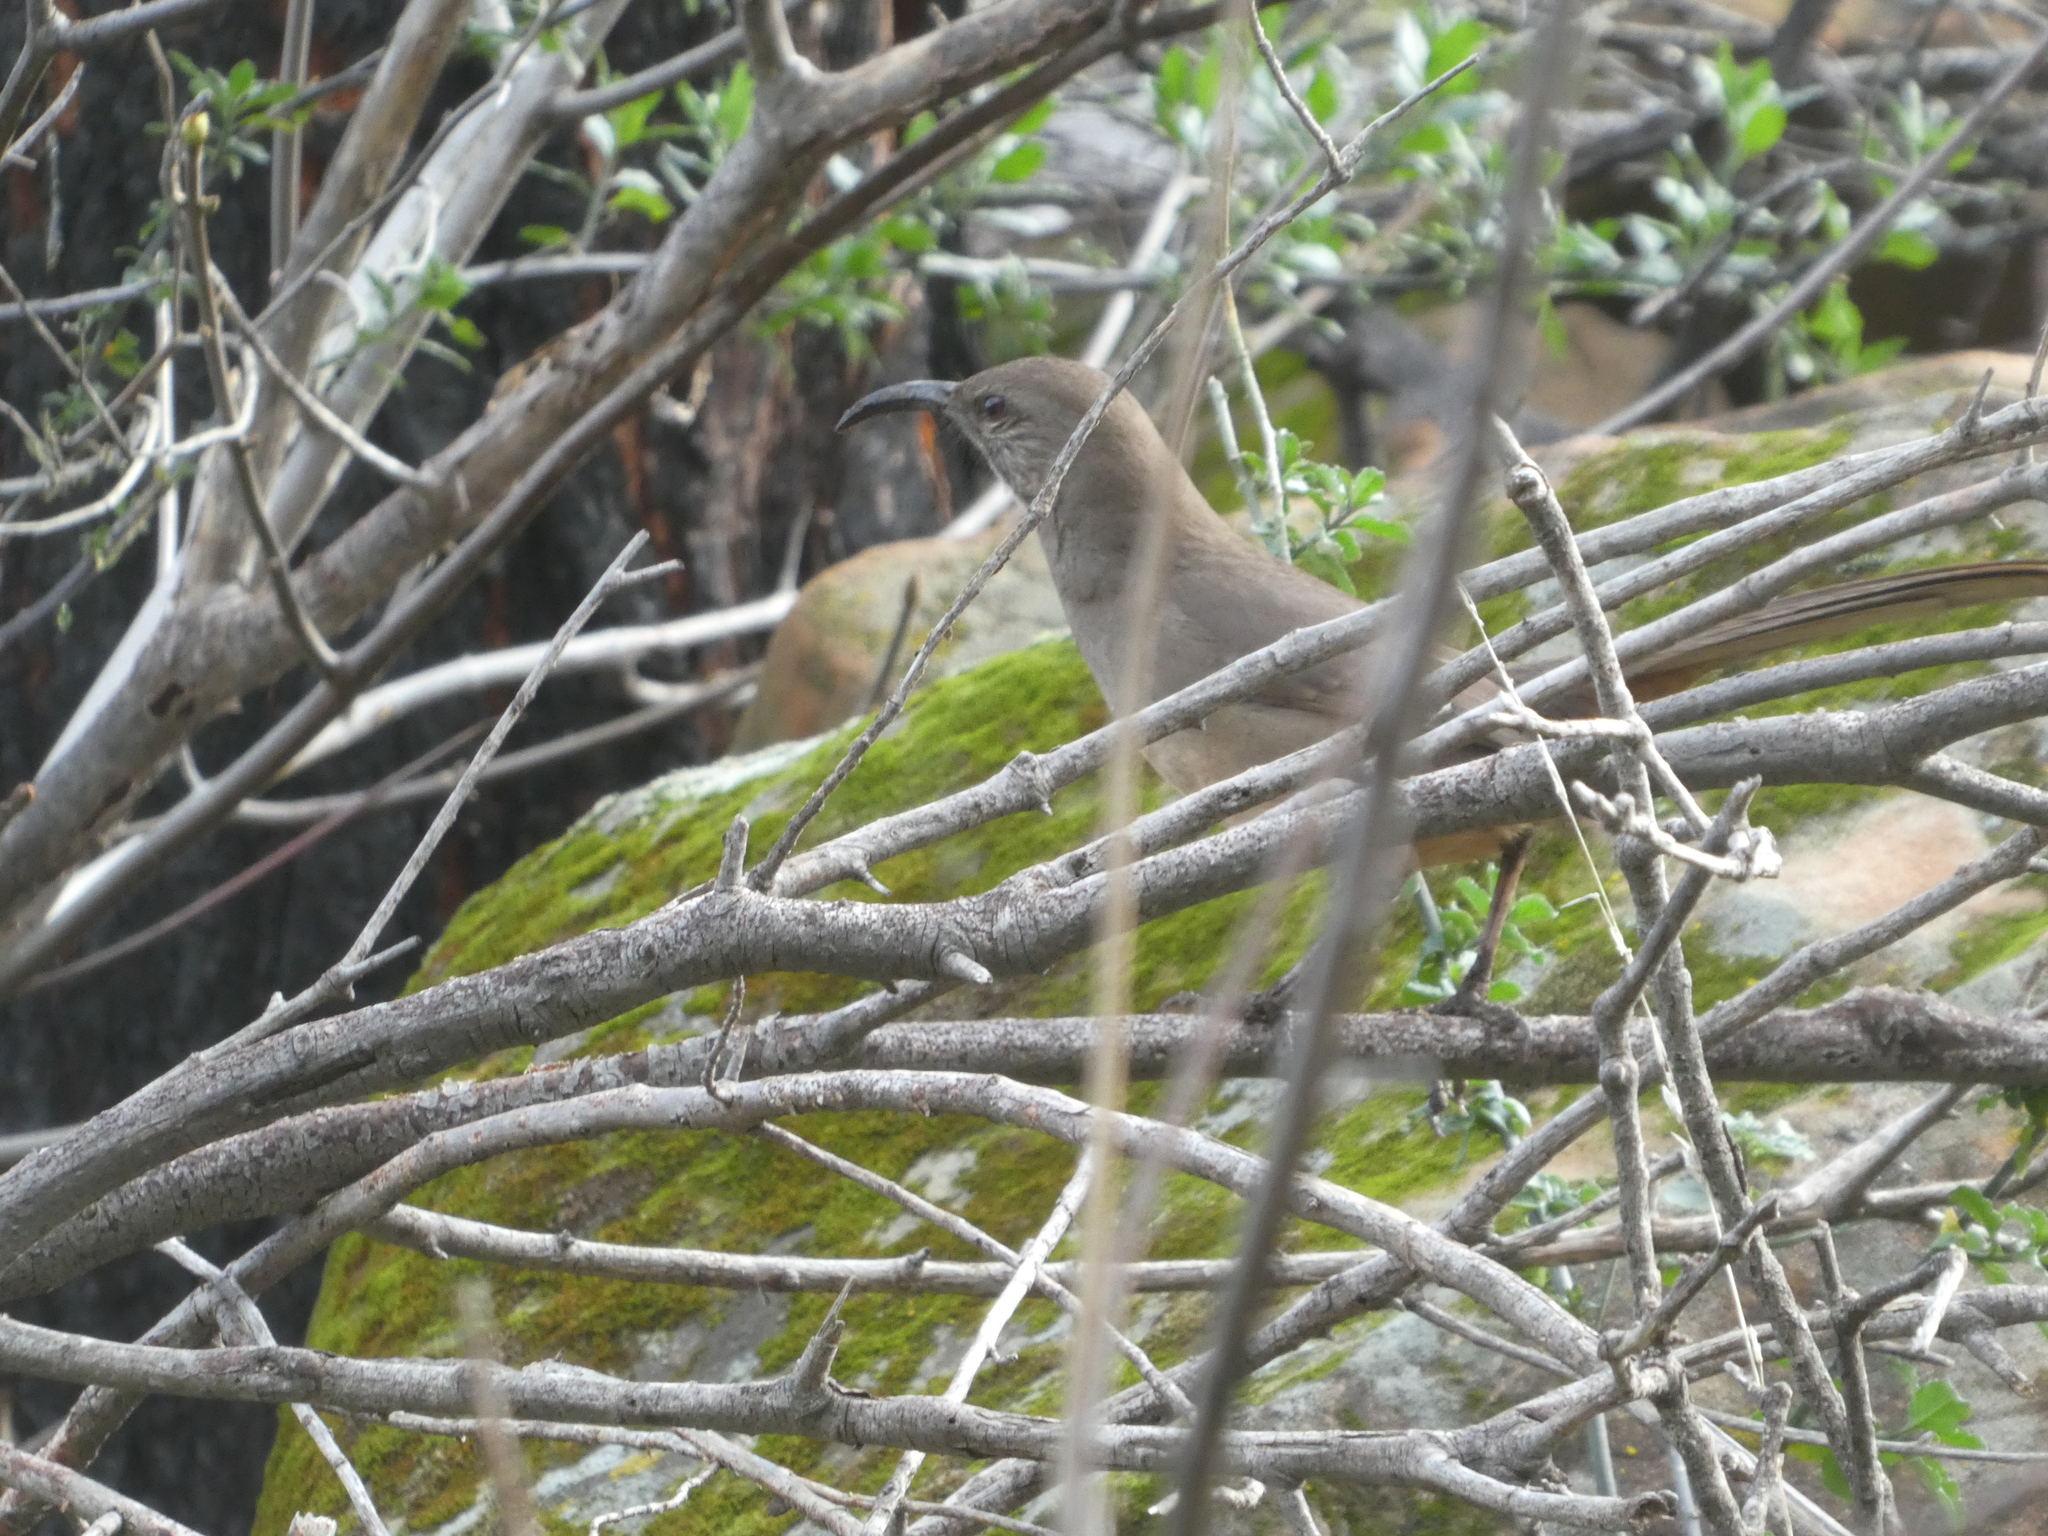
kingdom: Animalia
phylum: Chordata
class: Aves
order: Passeriformes
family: Mimidae
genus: Toxostoma
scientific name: Toxostoma redivivum
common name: California thrasher
